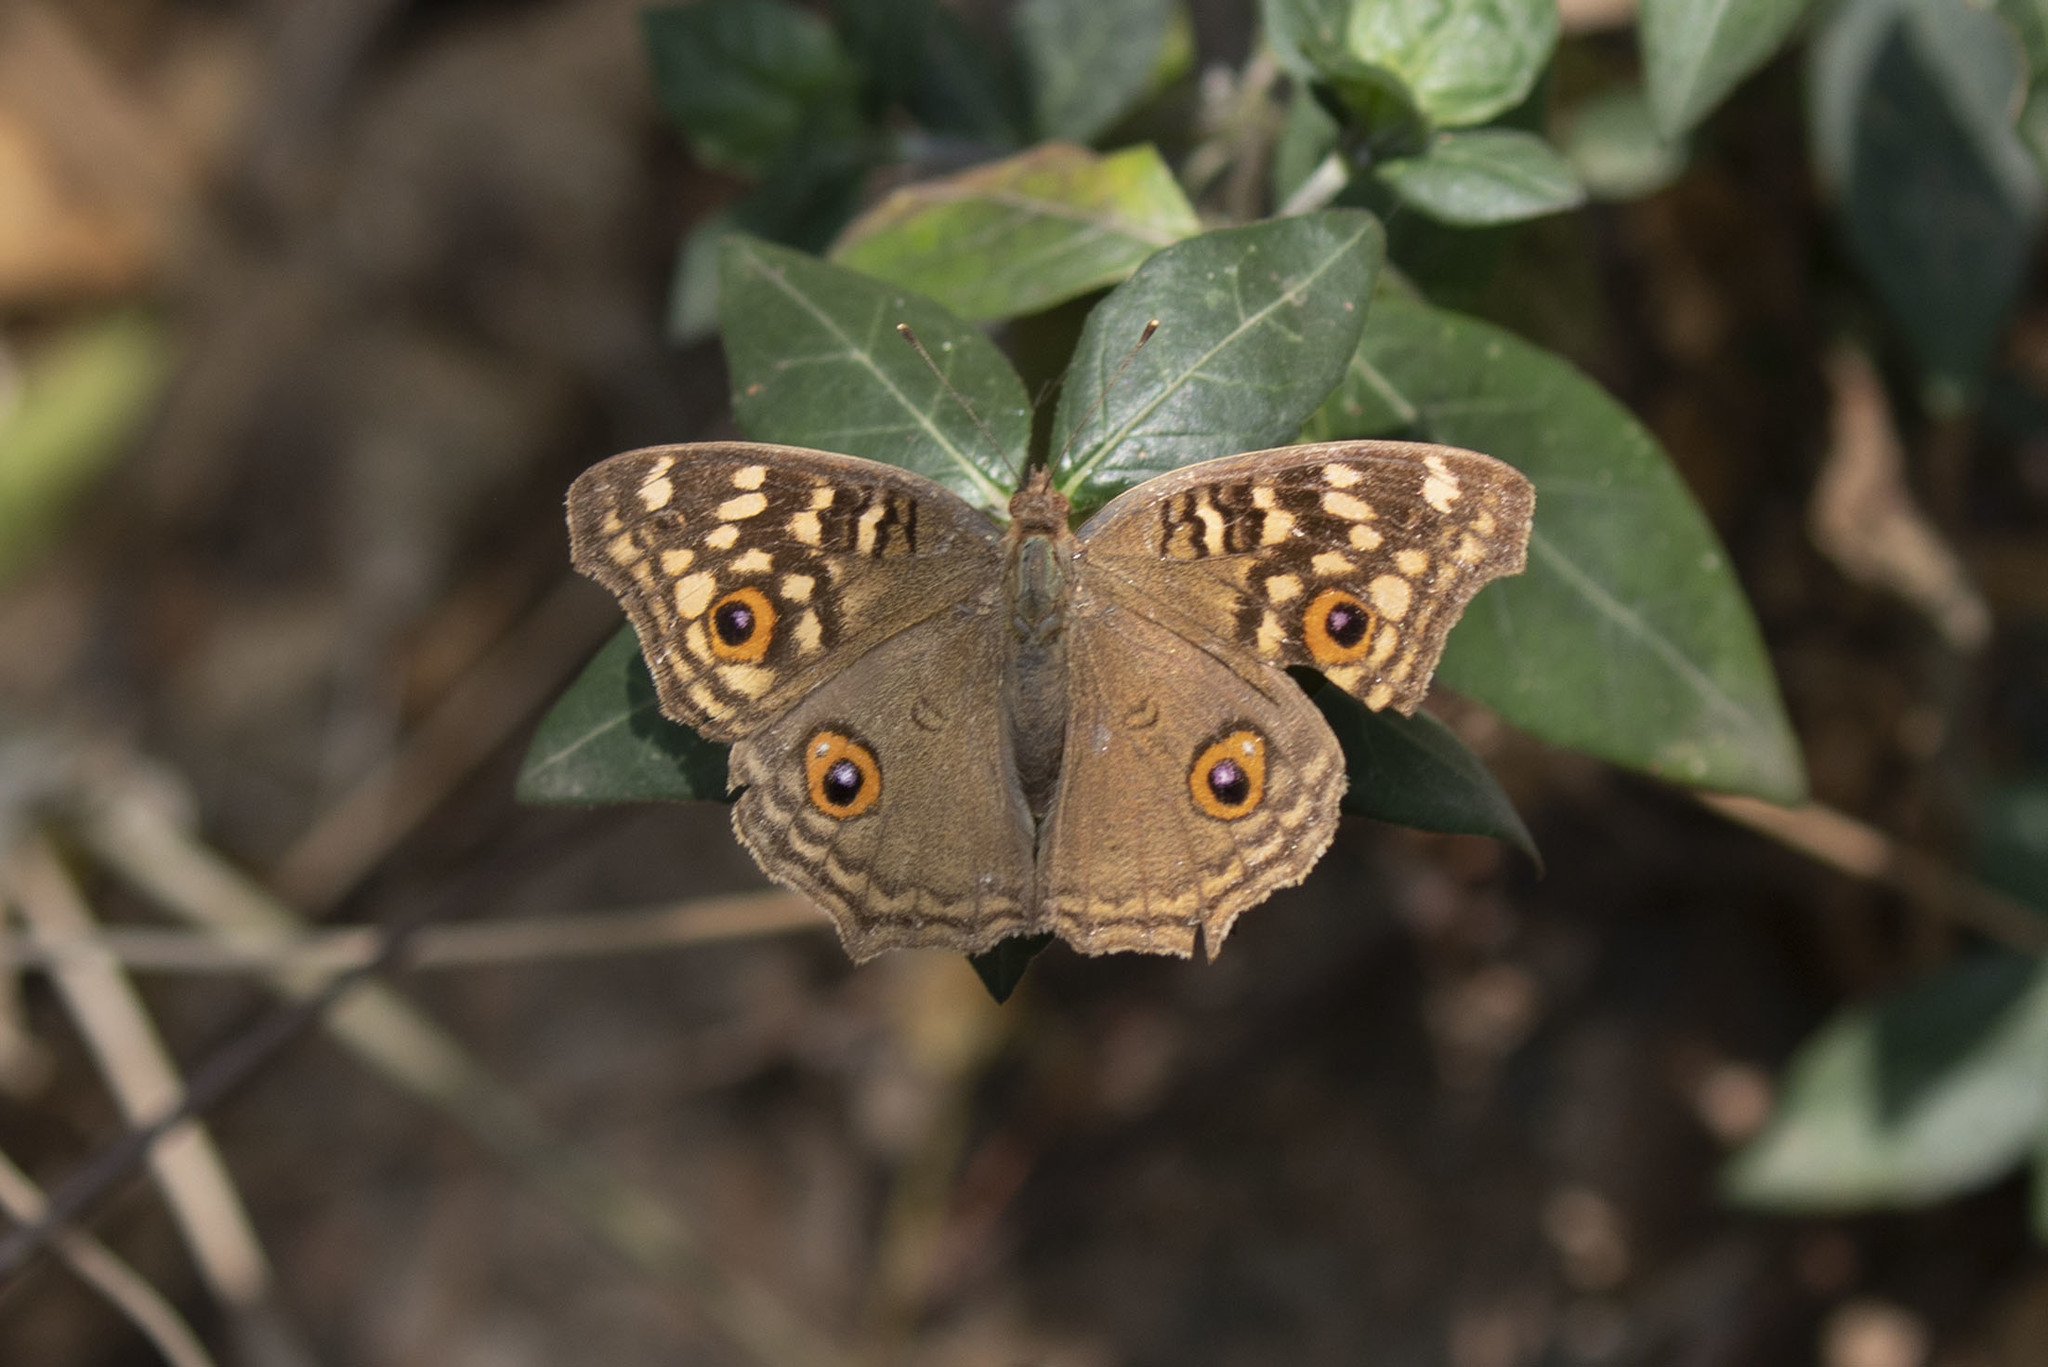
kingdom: Animalia
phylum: Arthropoda
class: Insecta
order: Lepidoptera
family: Nymphalidae
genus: Junonia
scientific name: Junonia lemonias
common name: Lemon pansy
